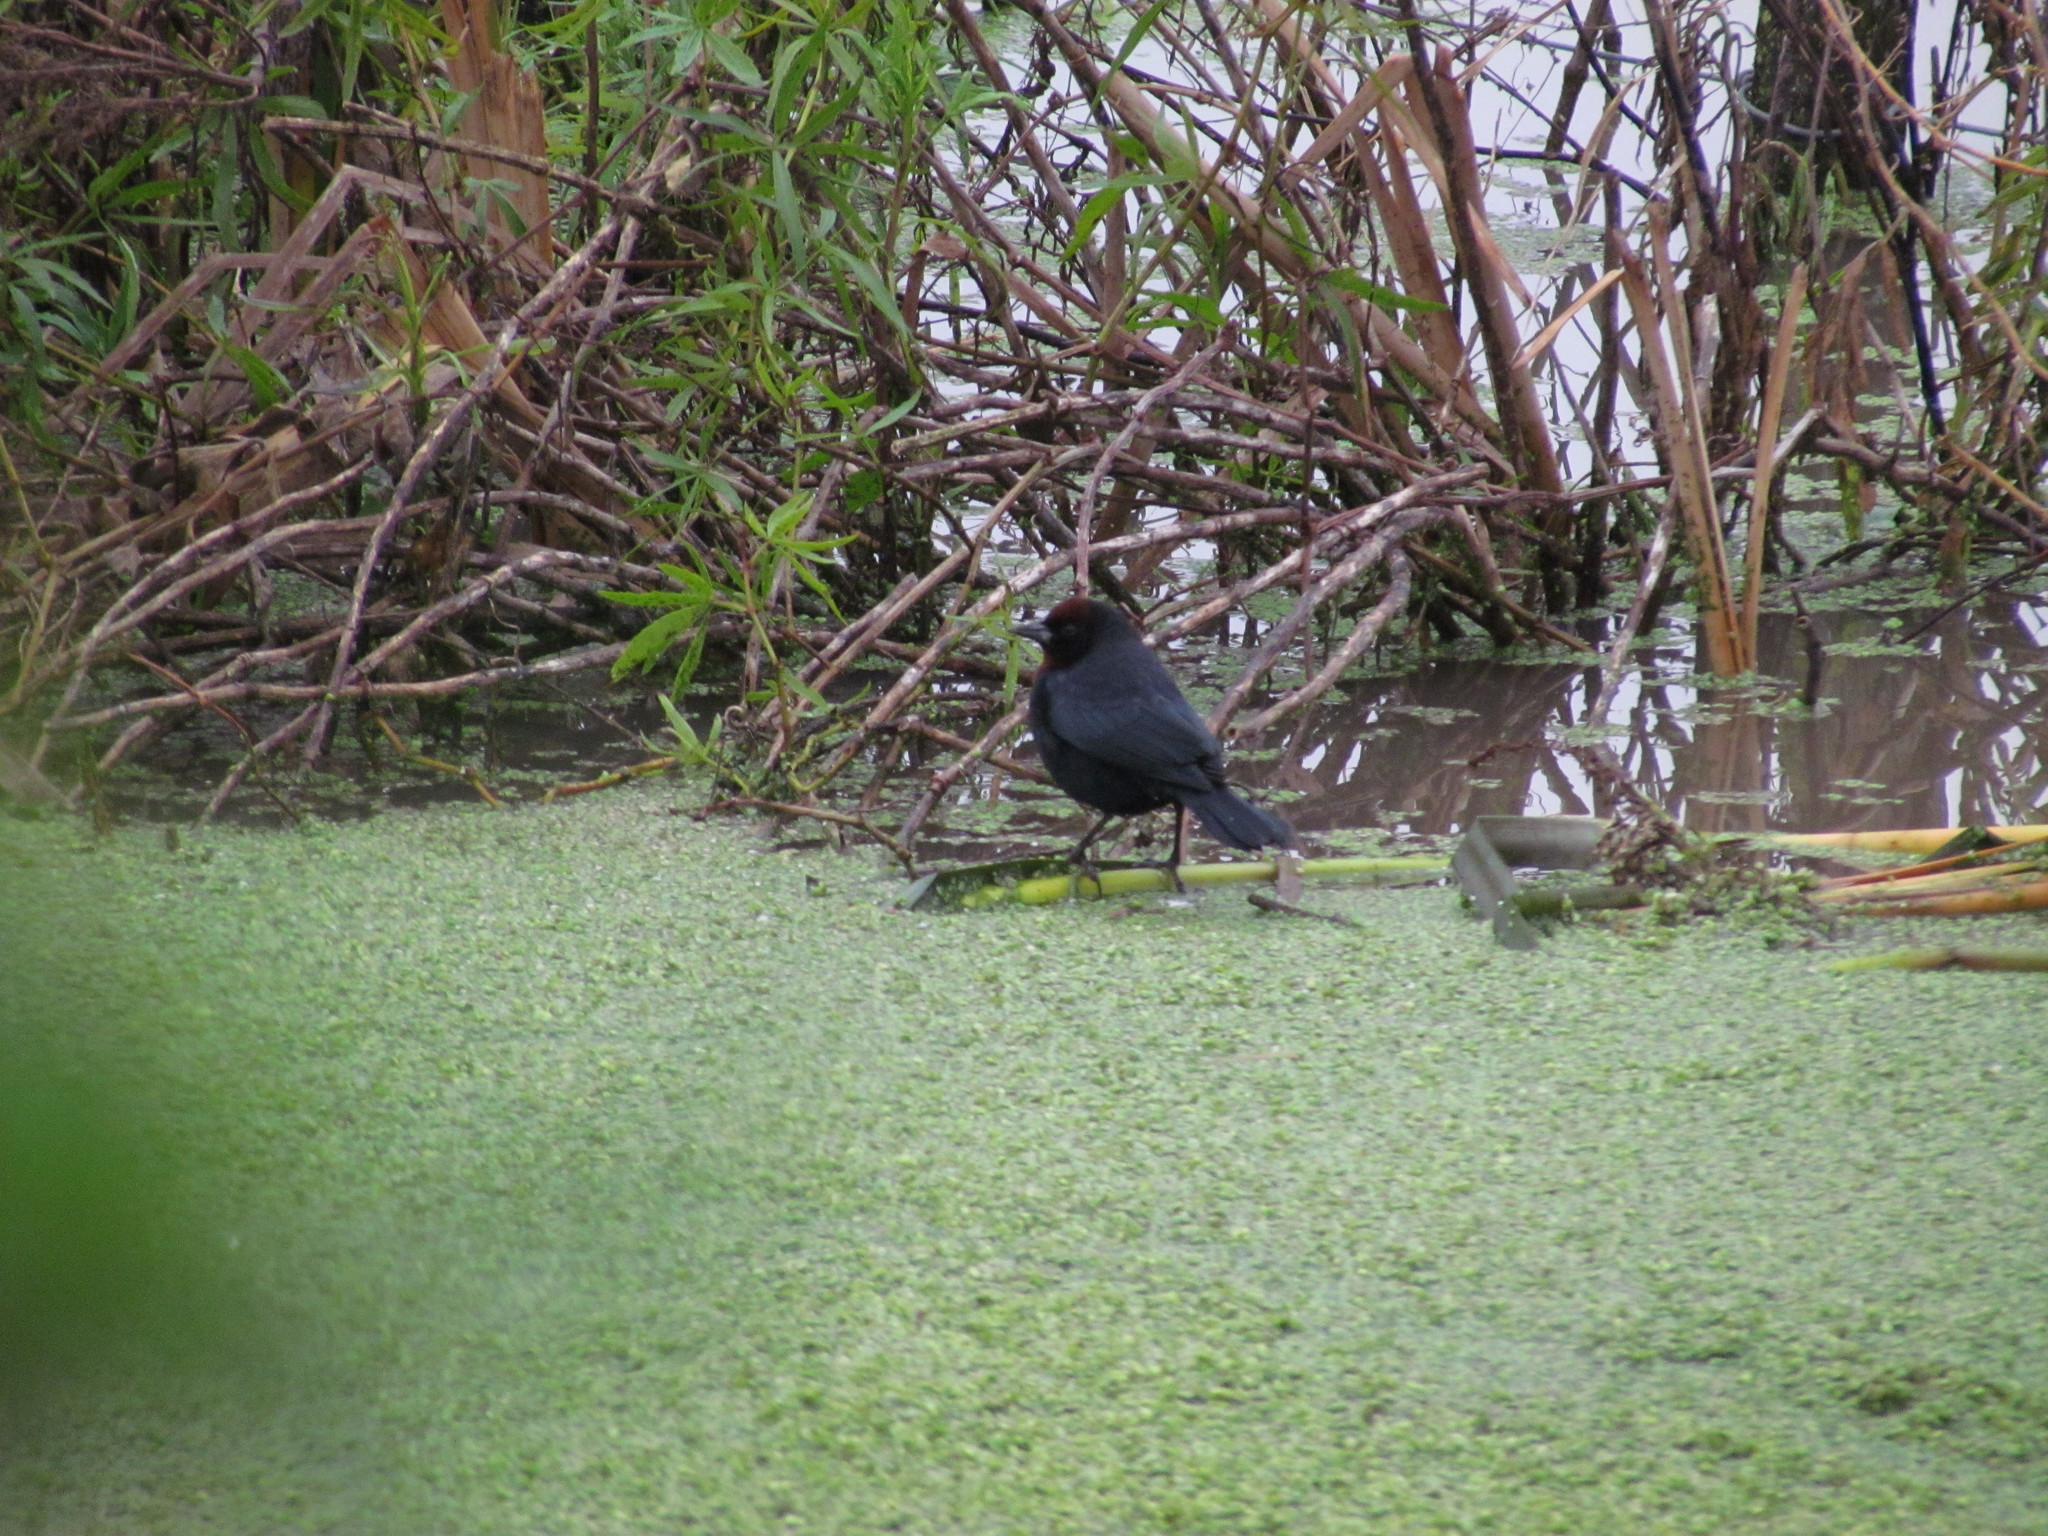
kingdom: Animalia
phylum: Chordata
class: Aves
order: Passeriformes
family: Icteridae
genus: Chrysomus
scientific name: Chrysomus ruficapillus
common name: Chestnut-capped blackbird
